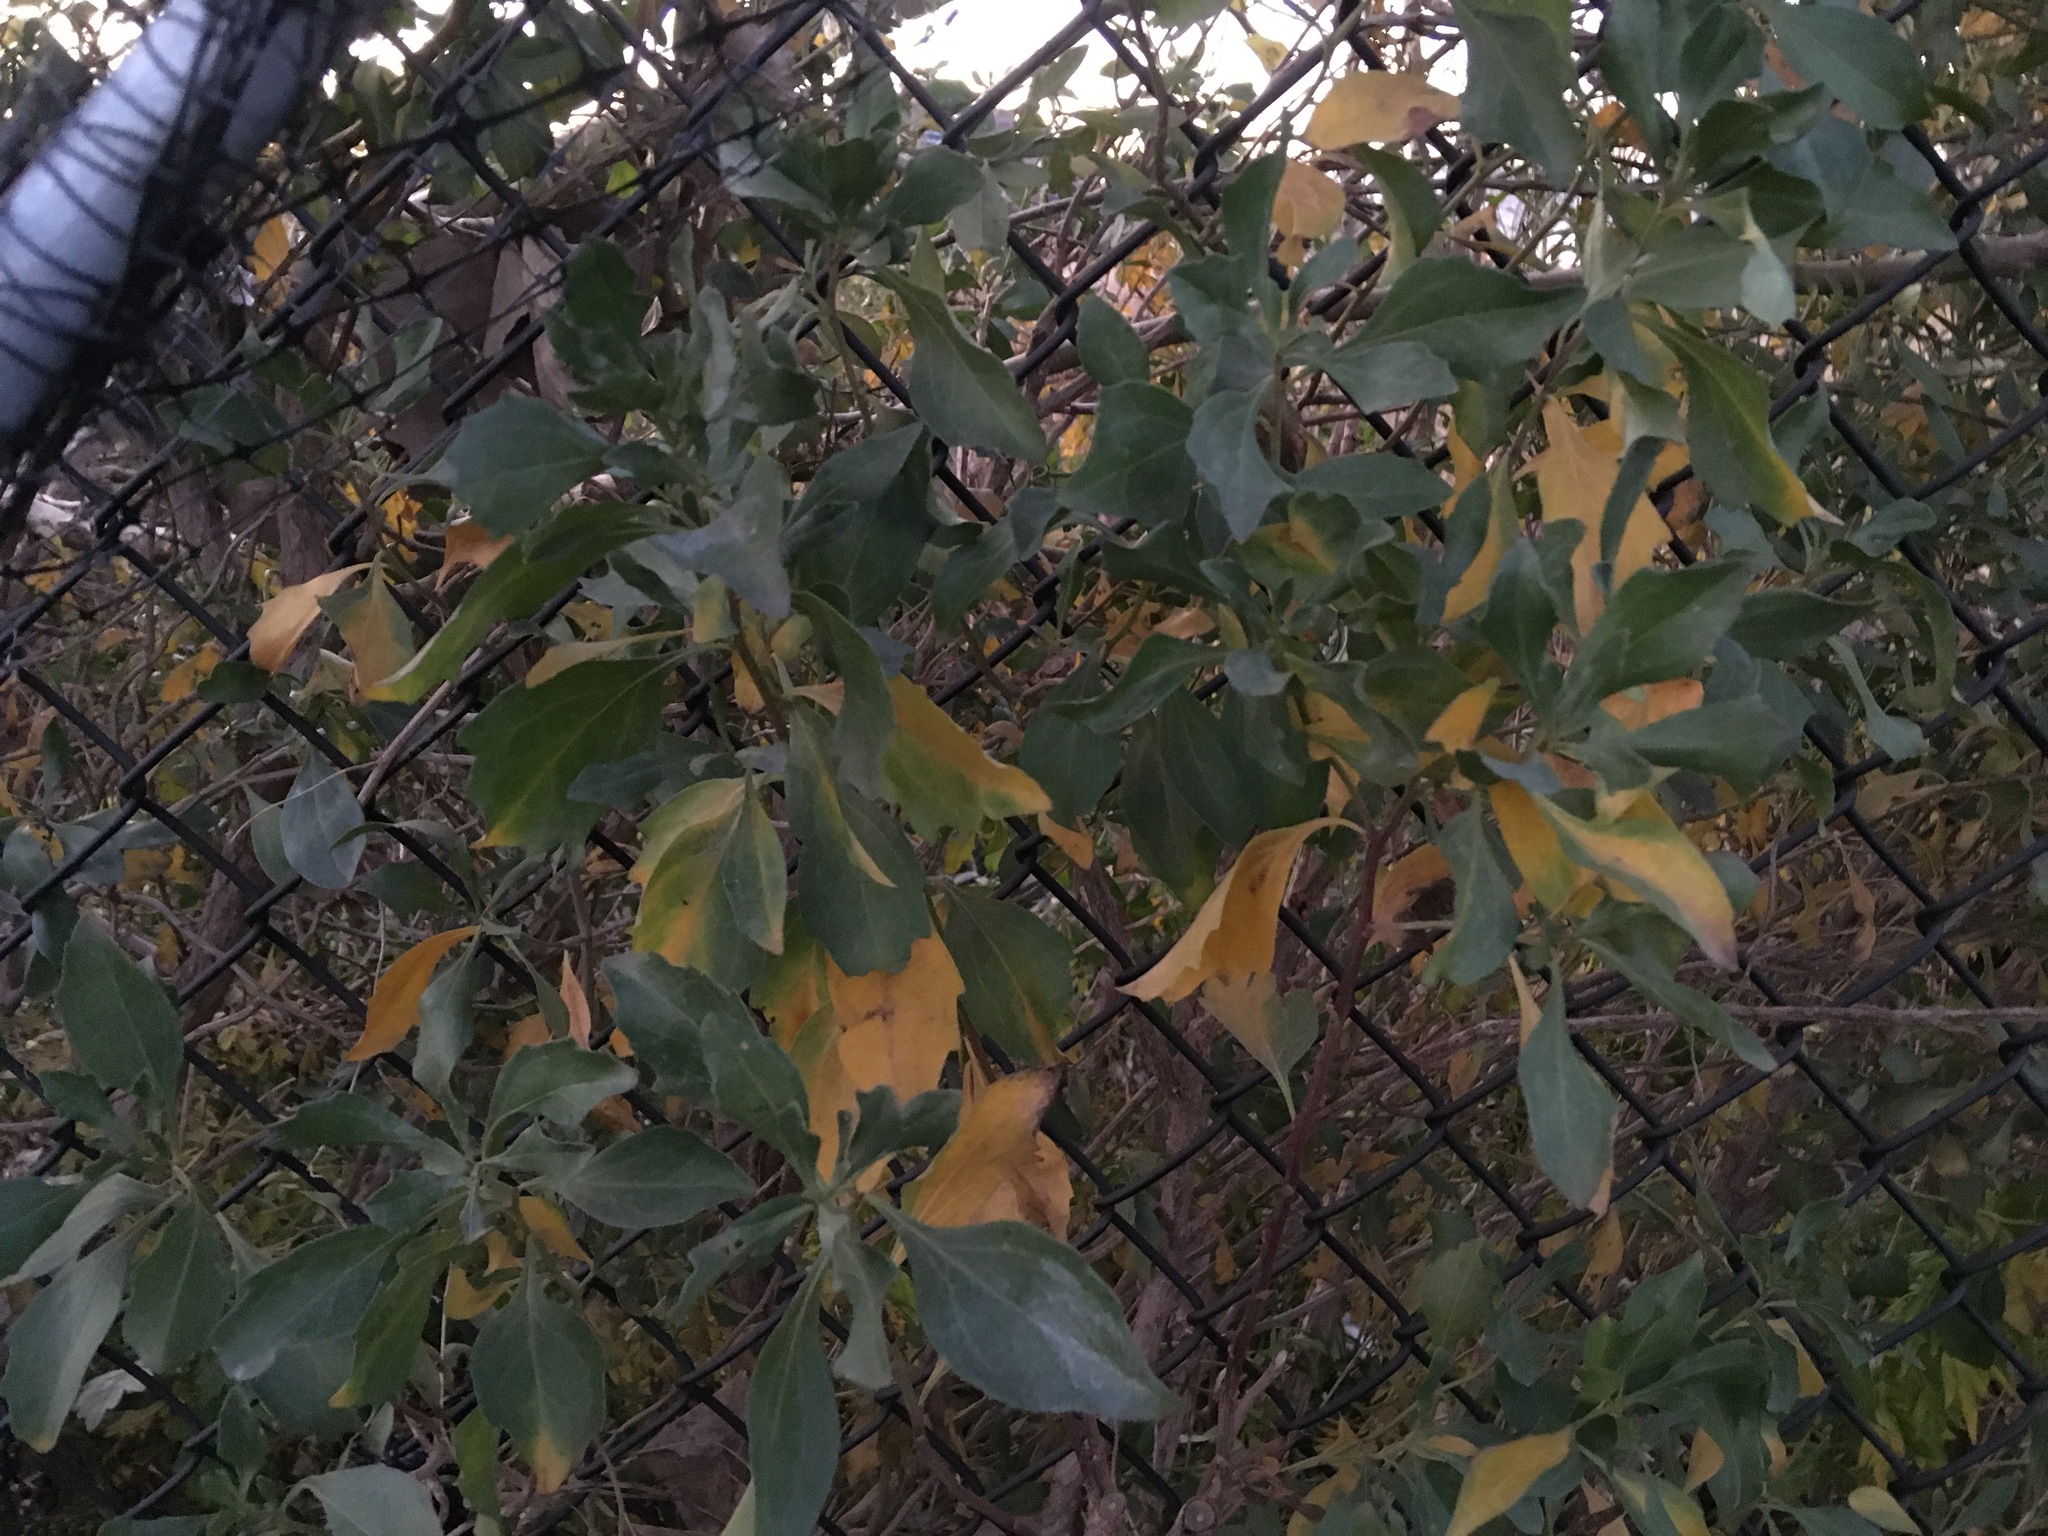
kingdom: Plantae
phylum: Tracheophyta
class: Magnoliopsida
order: Asterales
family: Asteraceae
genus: Baccharis
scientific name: Baccharis halimifolia
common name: Eastern baccharis
